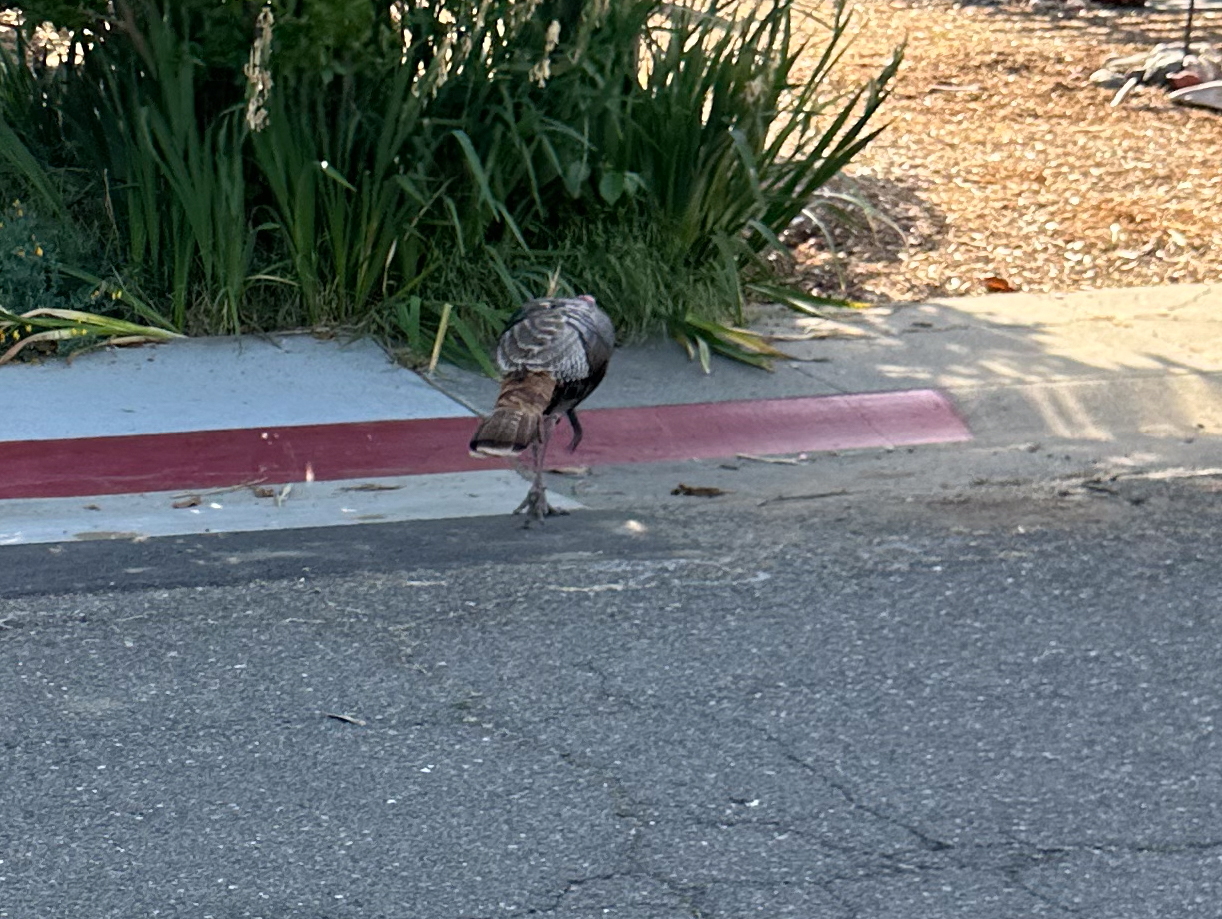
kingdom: Animalia
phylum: Chordata
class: Aves
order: Galliformes
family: Phasianidae
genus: Meleagris
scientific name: Meleagris gallopavo
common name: Wild turkey
